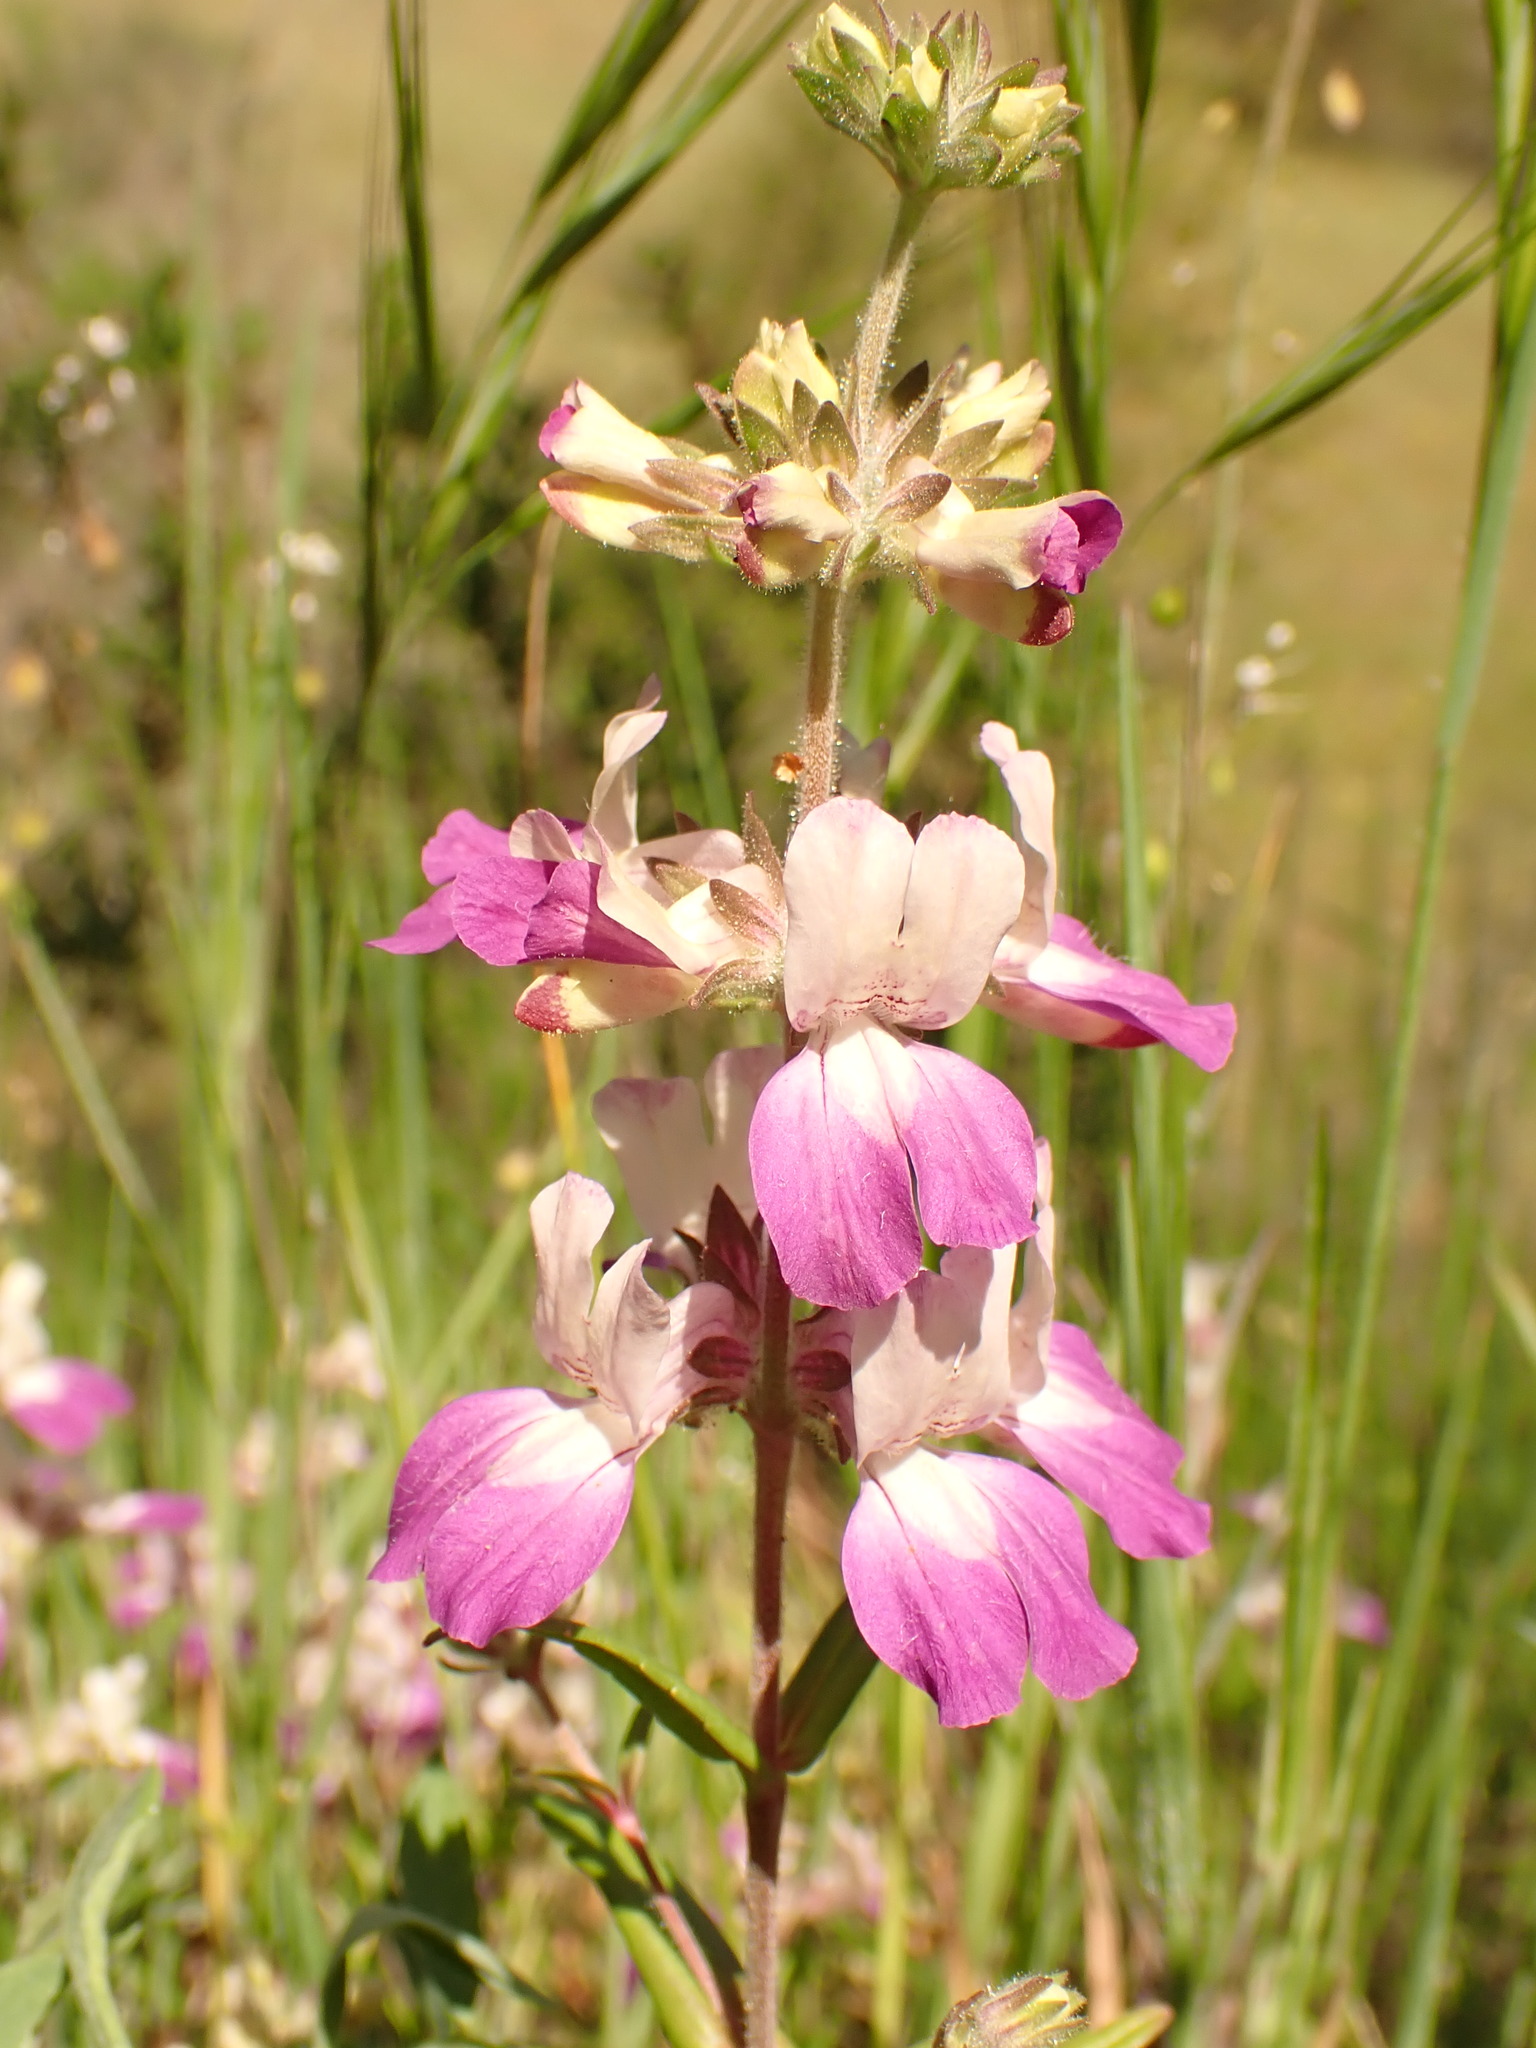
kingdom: Plantae
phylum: Tracheophyta
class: Magnoliopsida
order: Lamiales
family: Plantaginaceae
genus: Collinsia
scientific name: Collinsia heterophylla
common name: Chinese-houses
